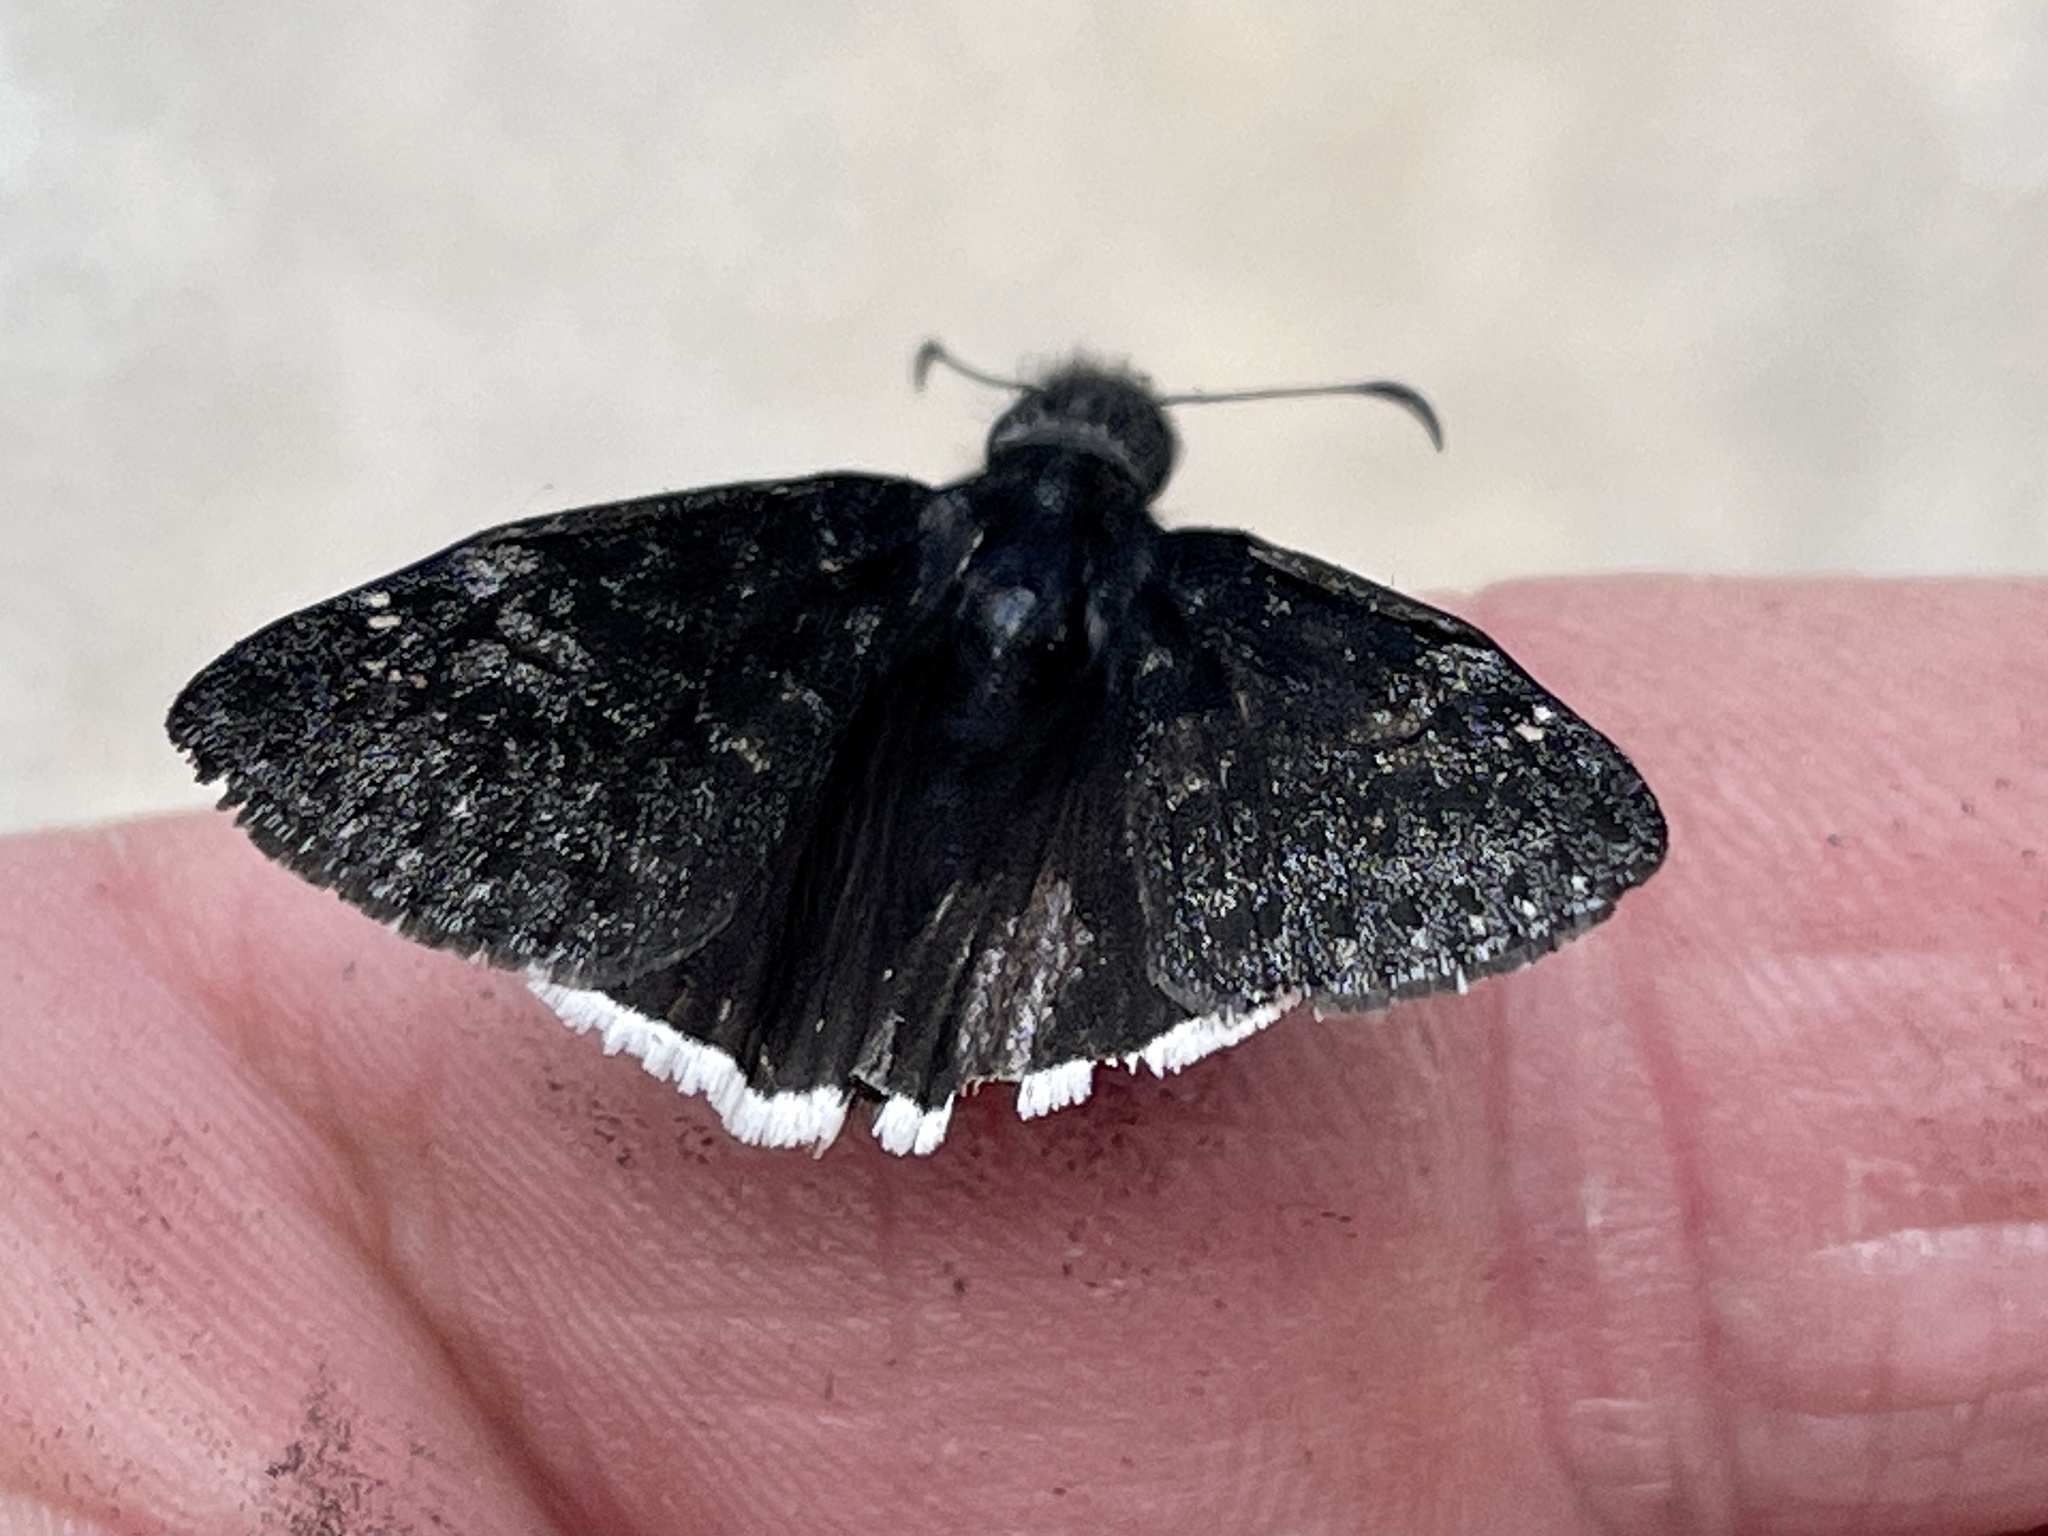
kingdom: Animalia
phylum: Arthropoda
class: Insecta
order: Lepidoptera
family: Hesperiidae
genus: Erynnis
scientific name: Erynnis funeralis
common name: Funereal duskywing
